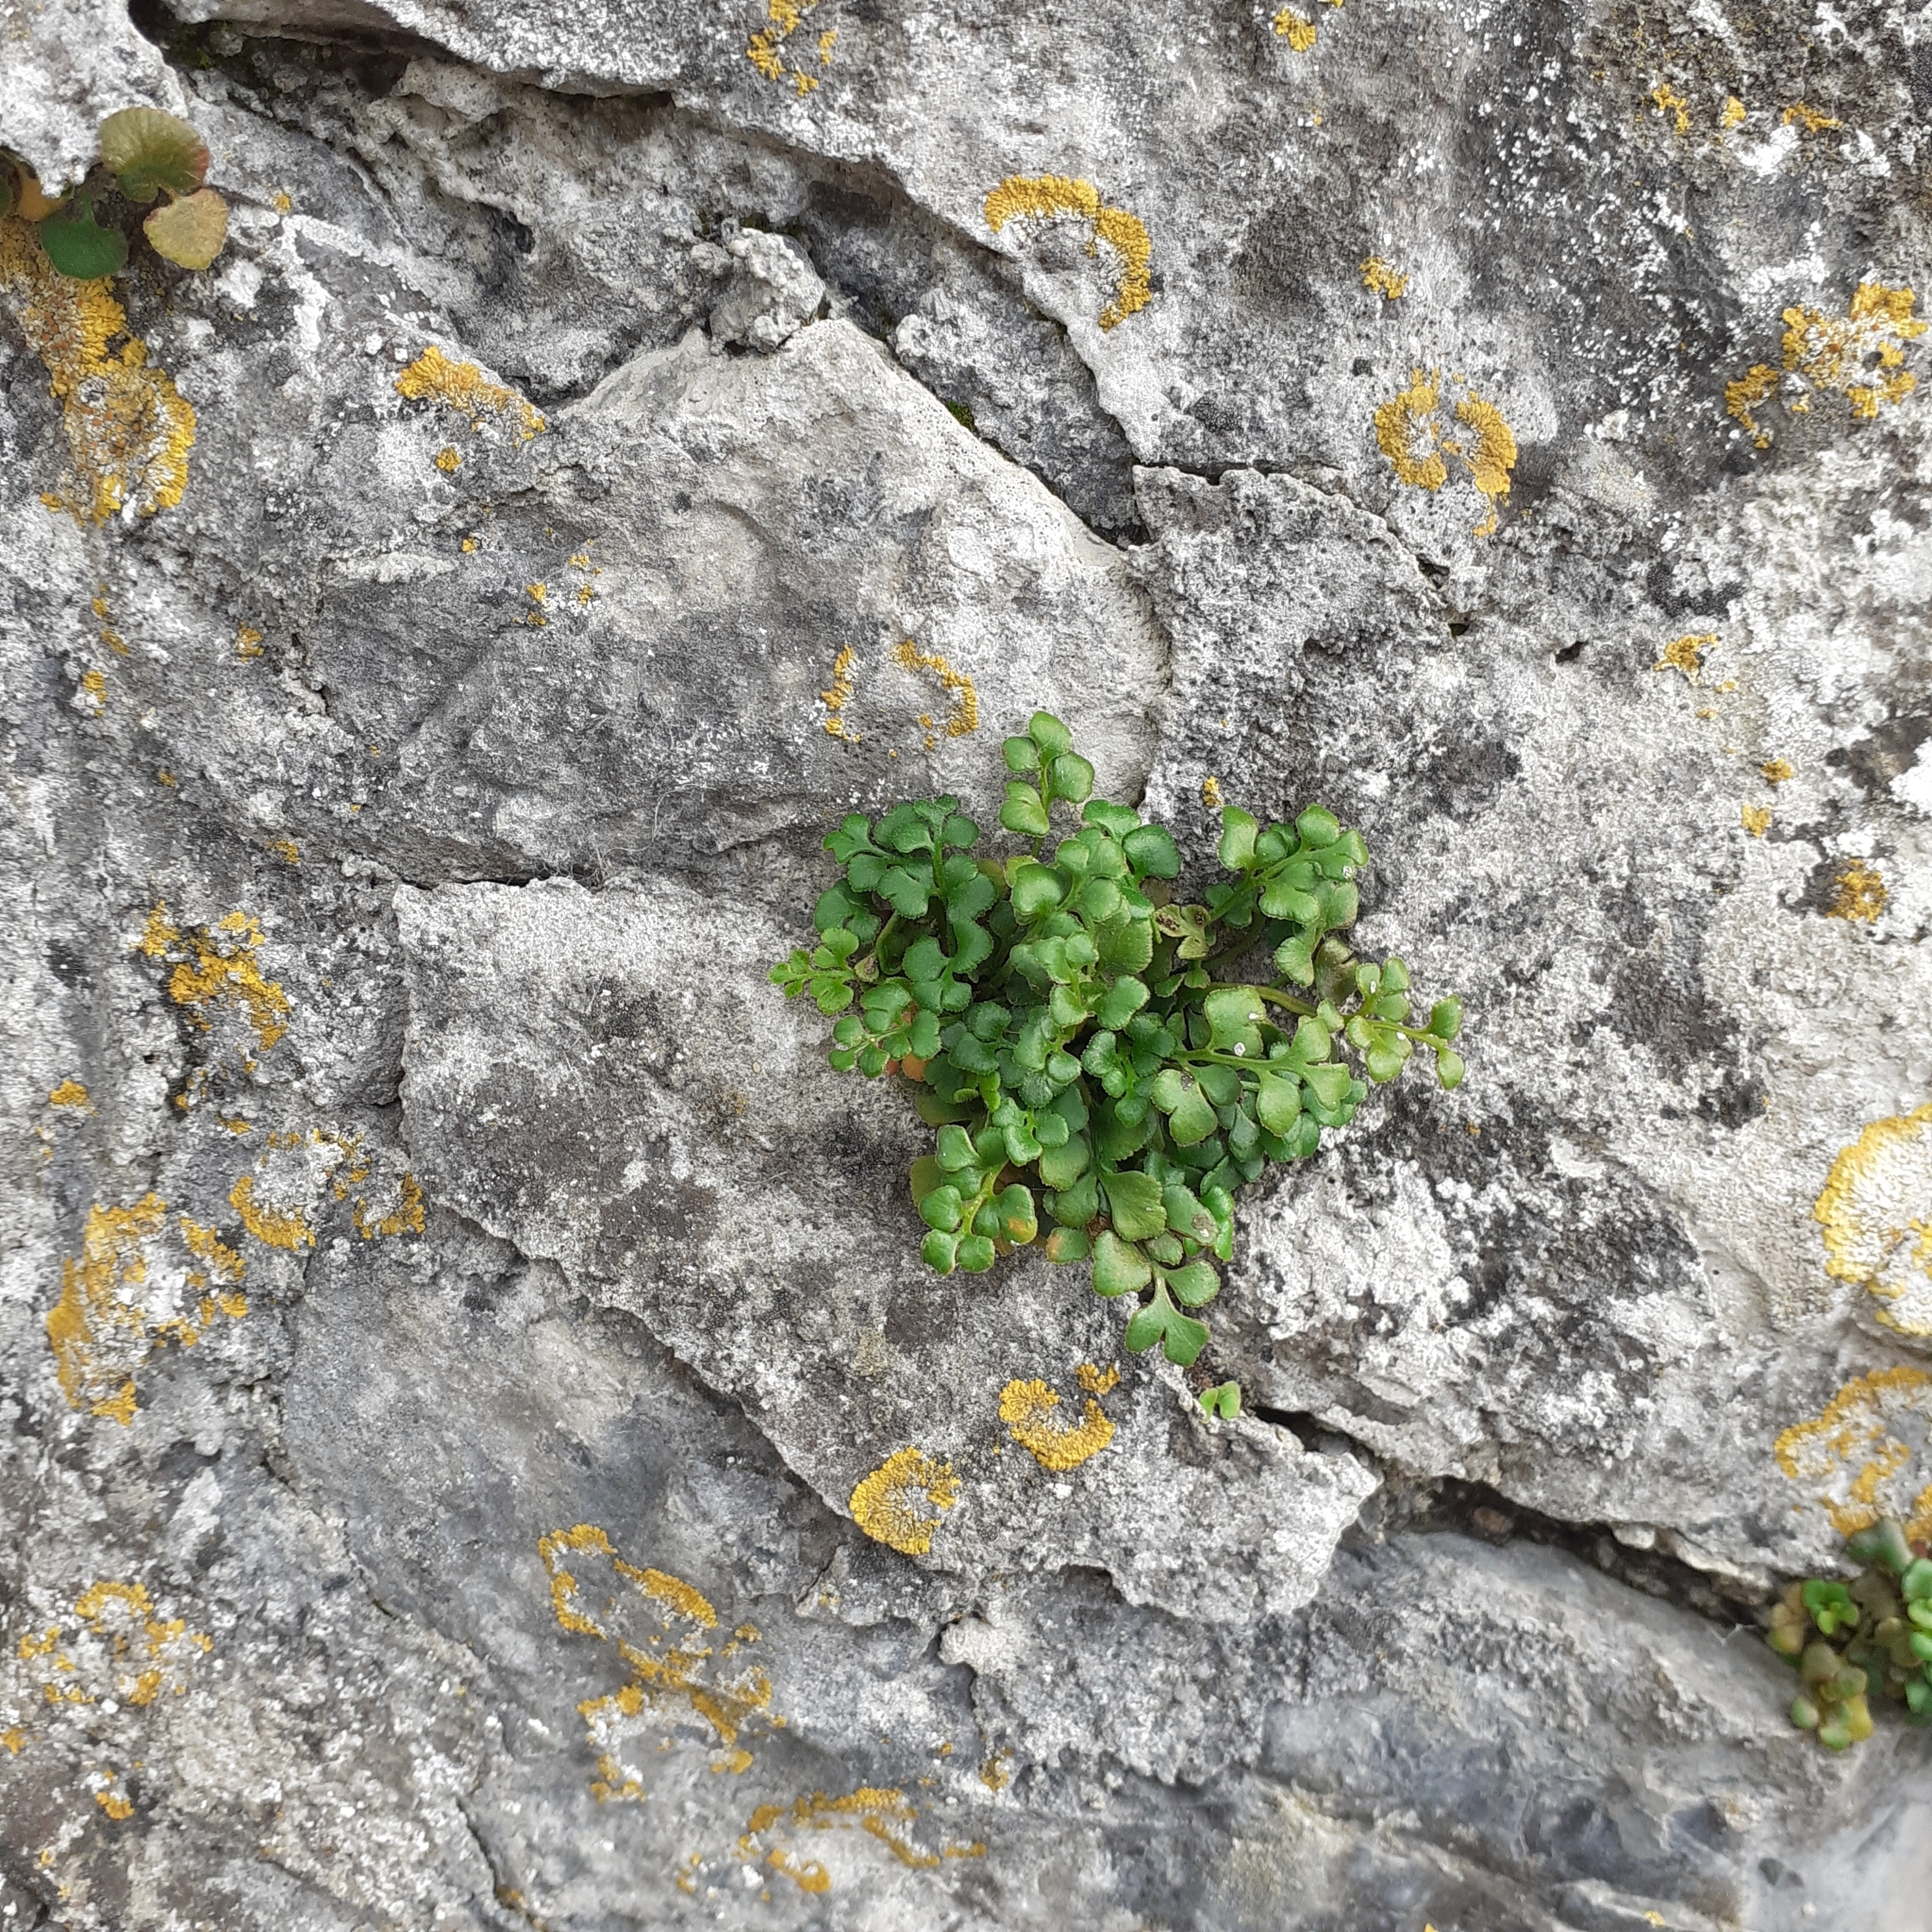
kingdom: Plantae
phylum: Tracheophyta
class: Polypodiopsida
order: Polypodiales
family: Aspleniaceae
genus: Asplenium
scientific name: Asplenium ruta-muraria
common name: Wall-rue
